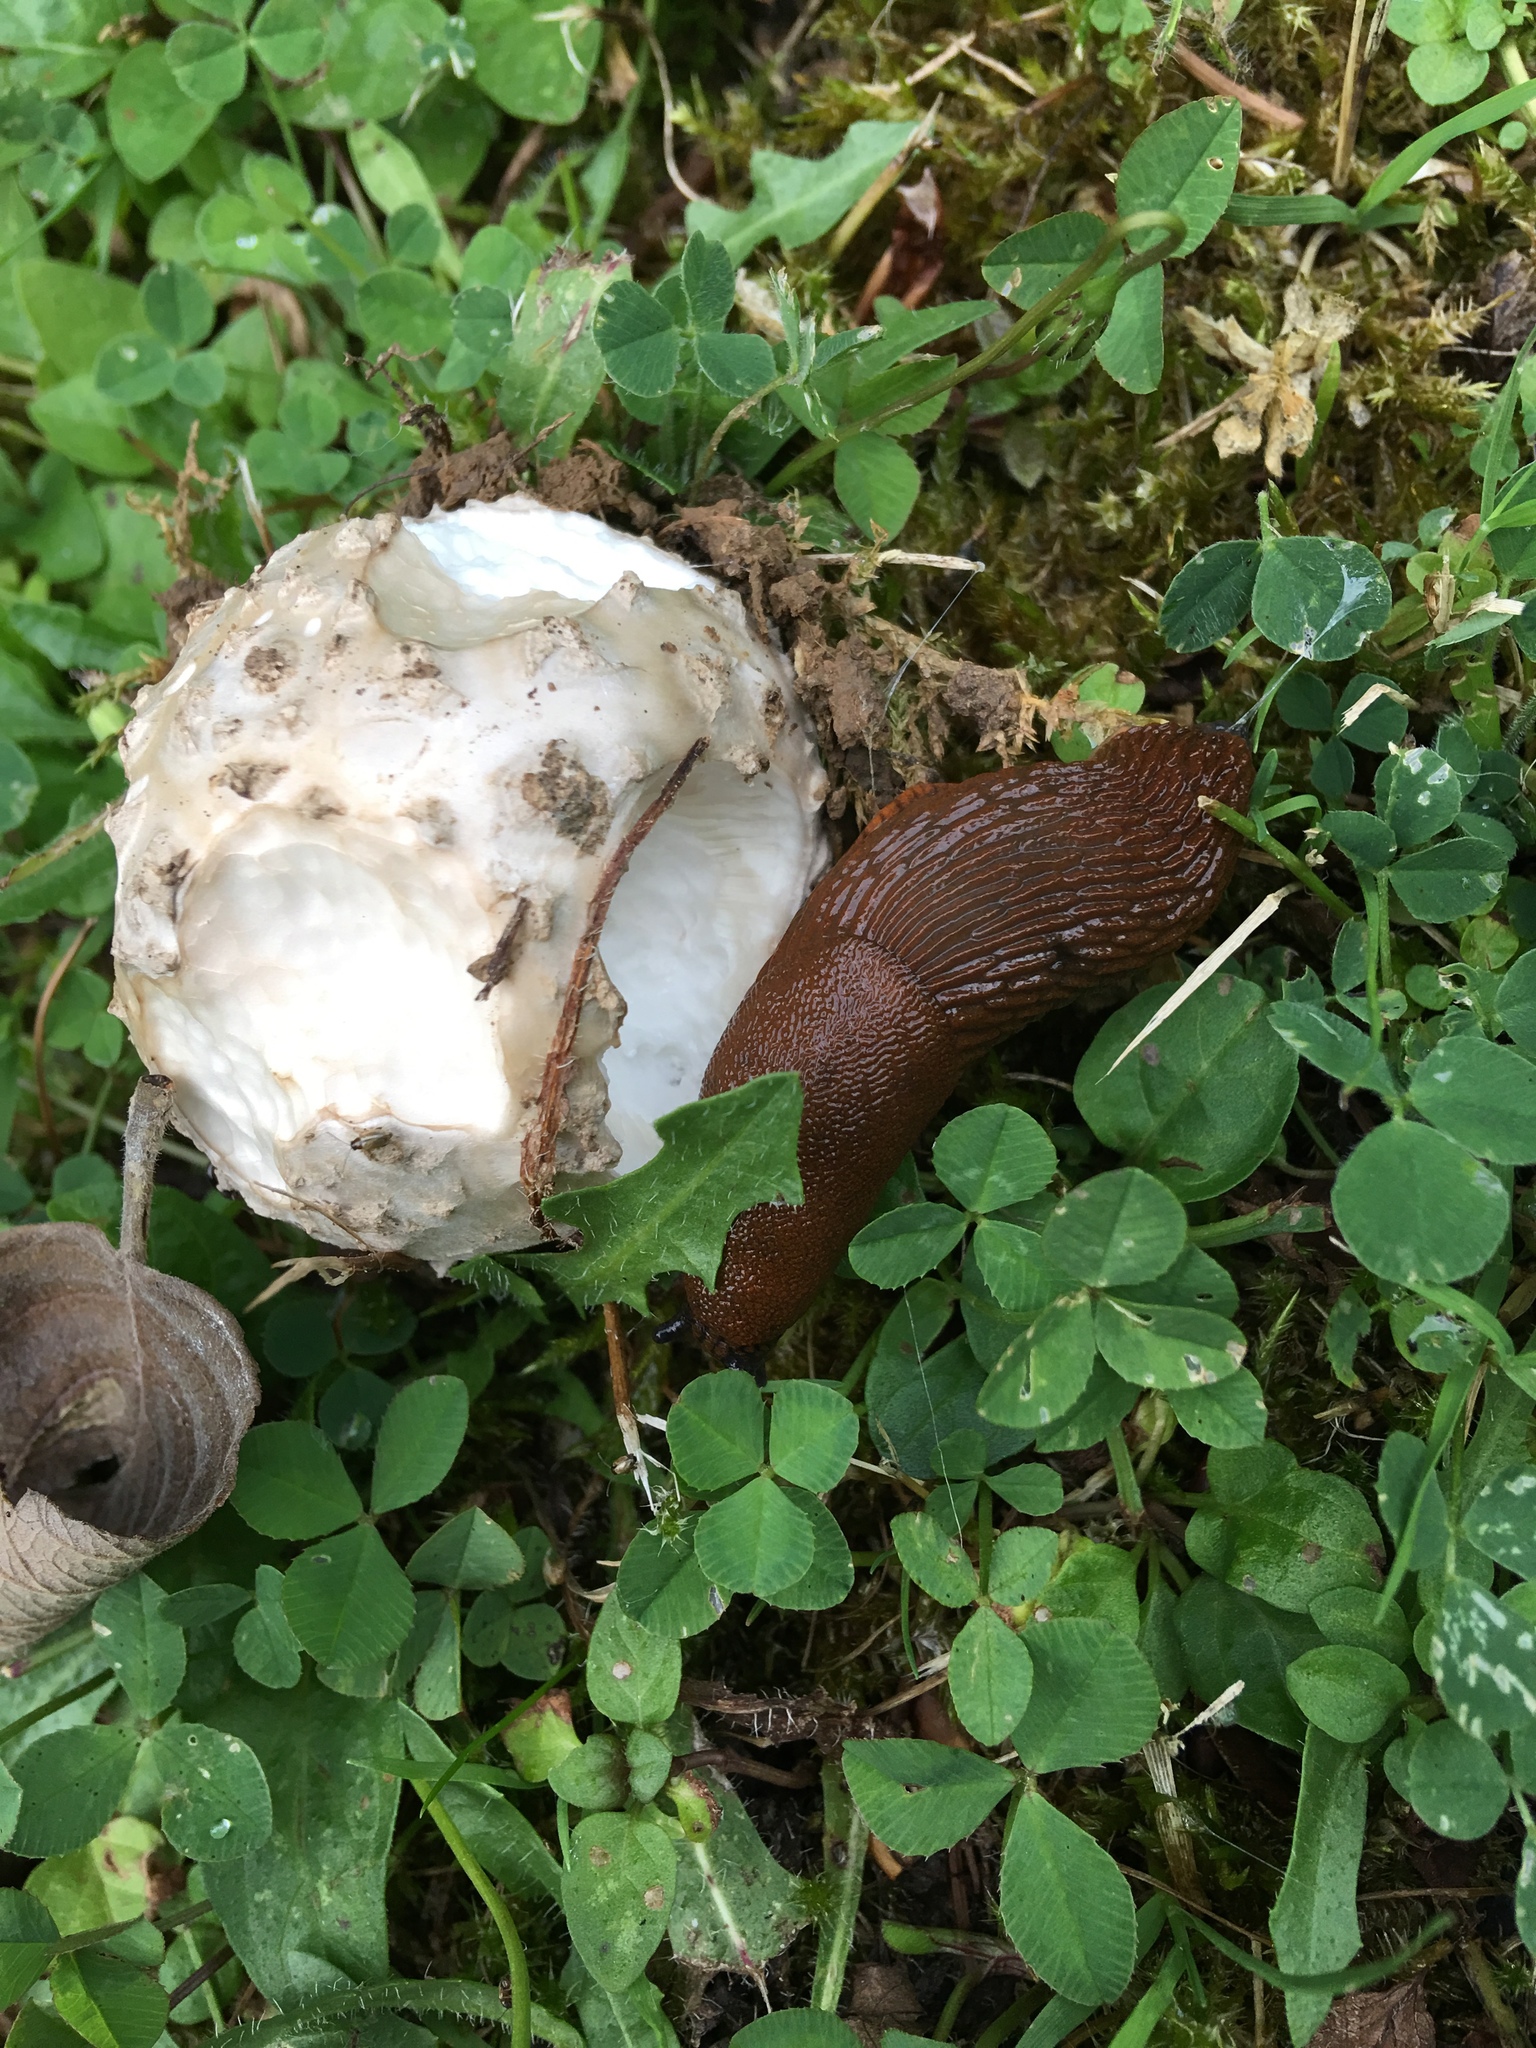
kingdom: Fungi
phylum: Basidiomycota
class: Agaricomycetes
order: Agaricales
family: Amanitaceae
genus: Amanita
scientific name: Amanita strobiliformis
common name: Warted amanita
